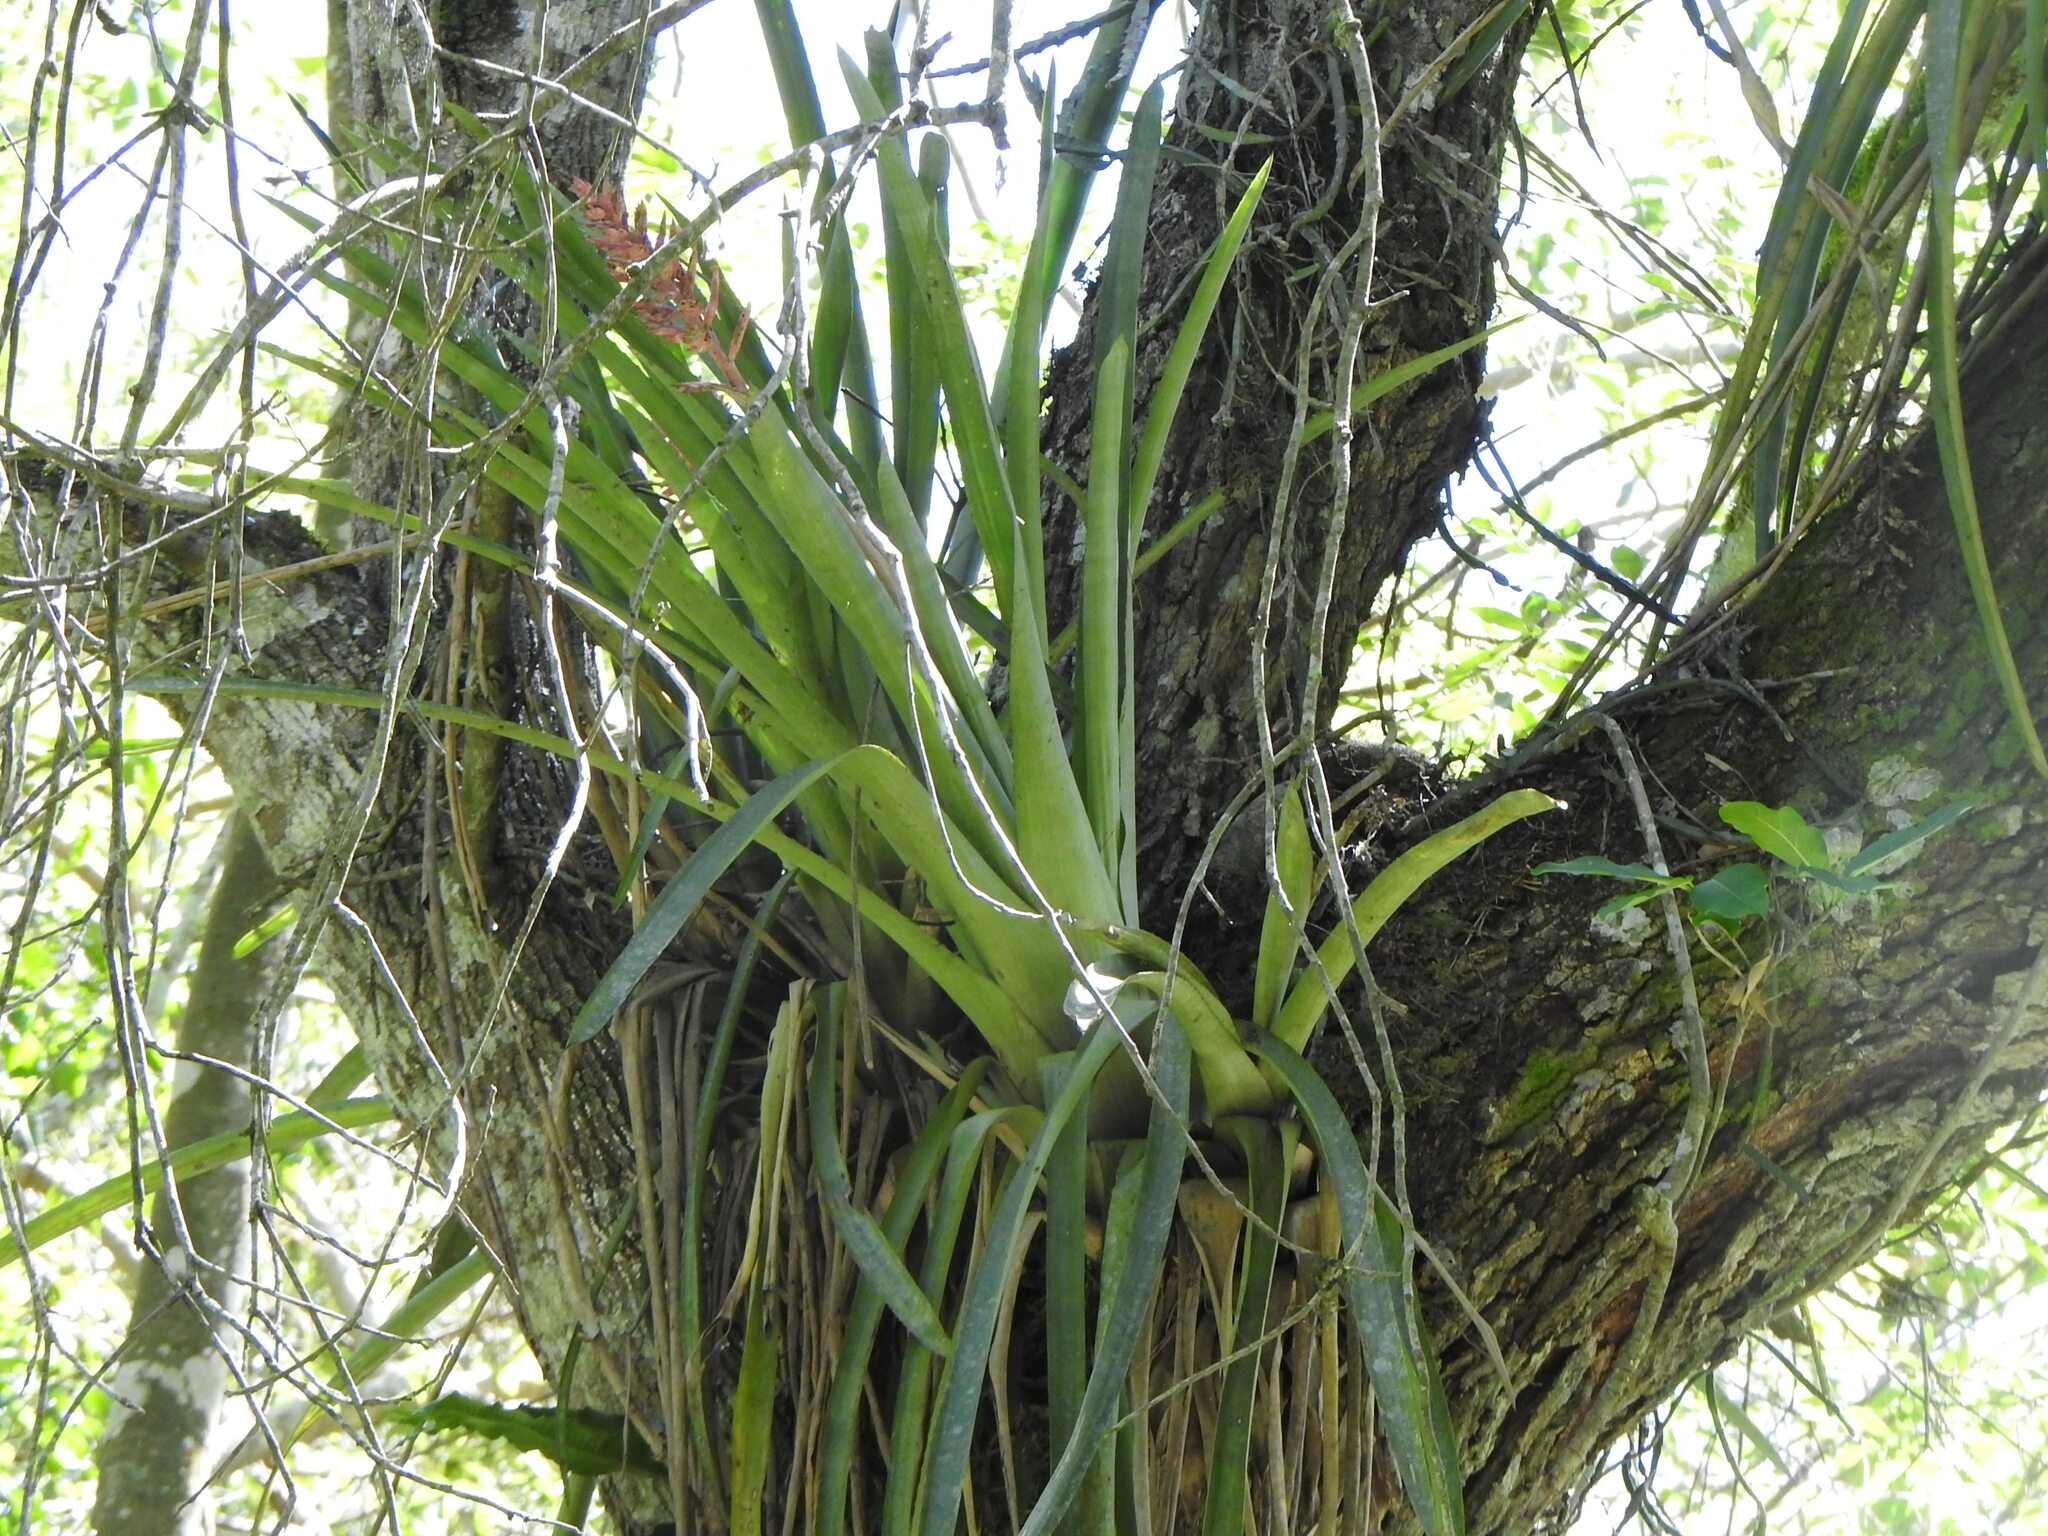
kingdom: Plantae
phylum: Tracheophyta
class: Liliopsida
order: Poales
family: Bromeliaceae
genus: Aechmea
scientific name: Aechmea distichantha
